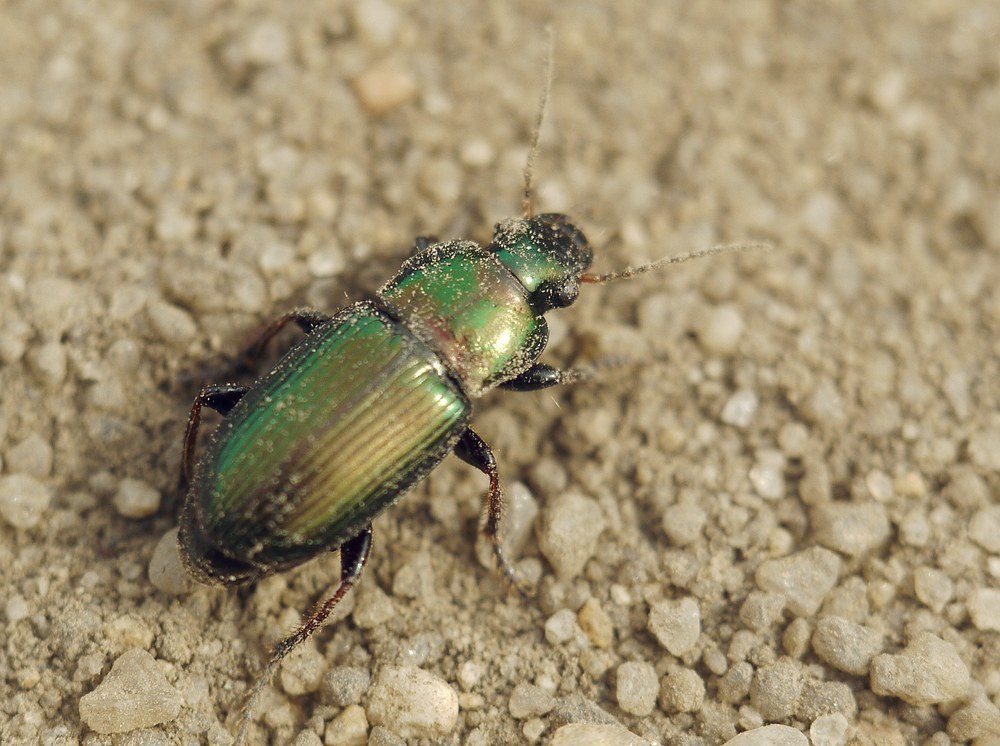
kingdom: Animalia
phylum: Arthropoda
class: Insecta
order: Coleoptera
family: Carabidae
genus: Harpalus
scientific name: Harpalus distinguendus
